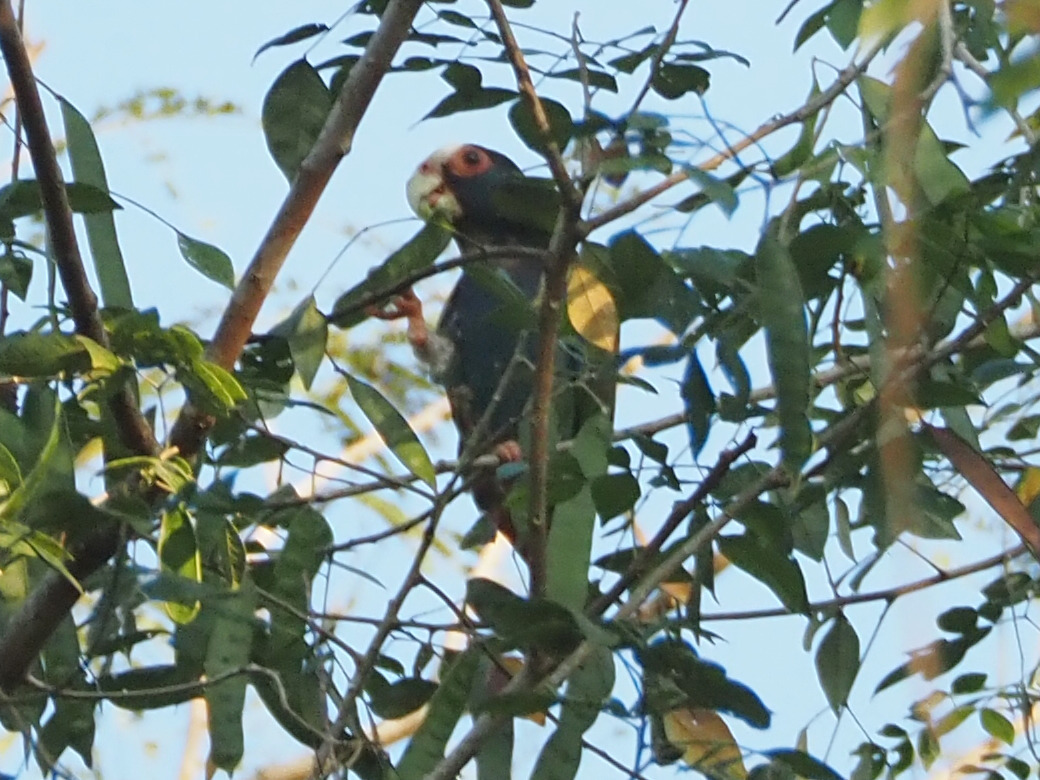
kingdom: Animalia
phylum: Chordata
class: Aves
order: Psittaciformes
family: Psittacidae
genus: Pionus
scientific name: Pionus senilis
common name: White-crowned parrot
